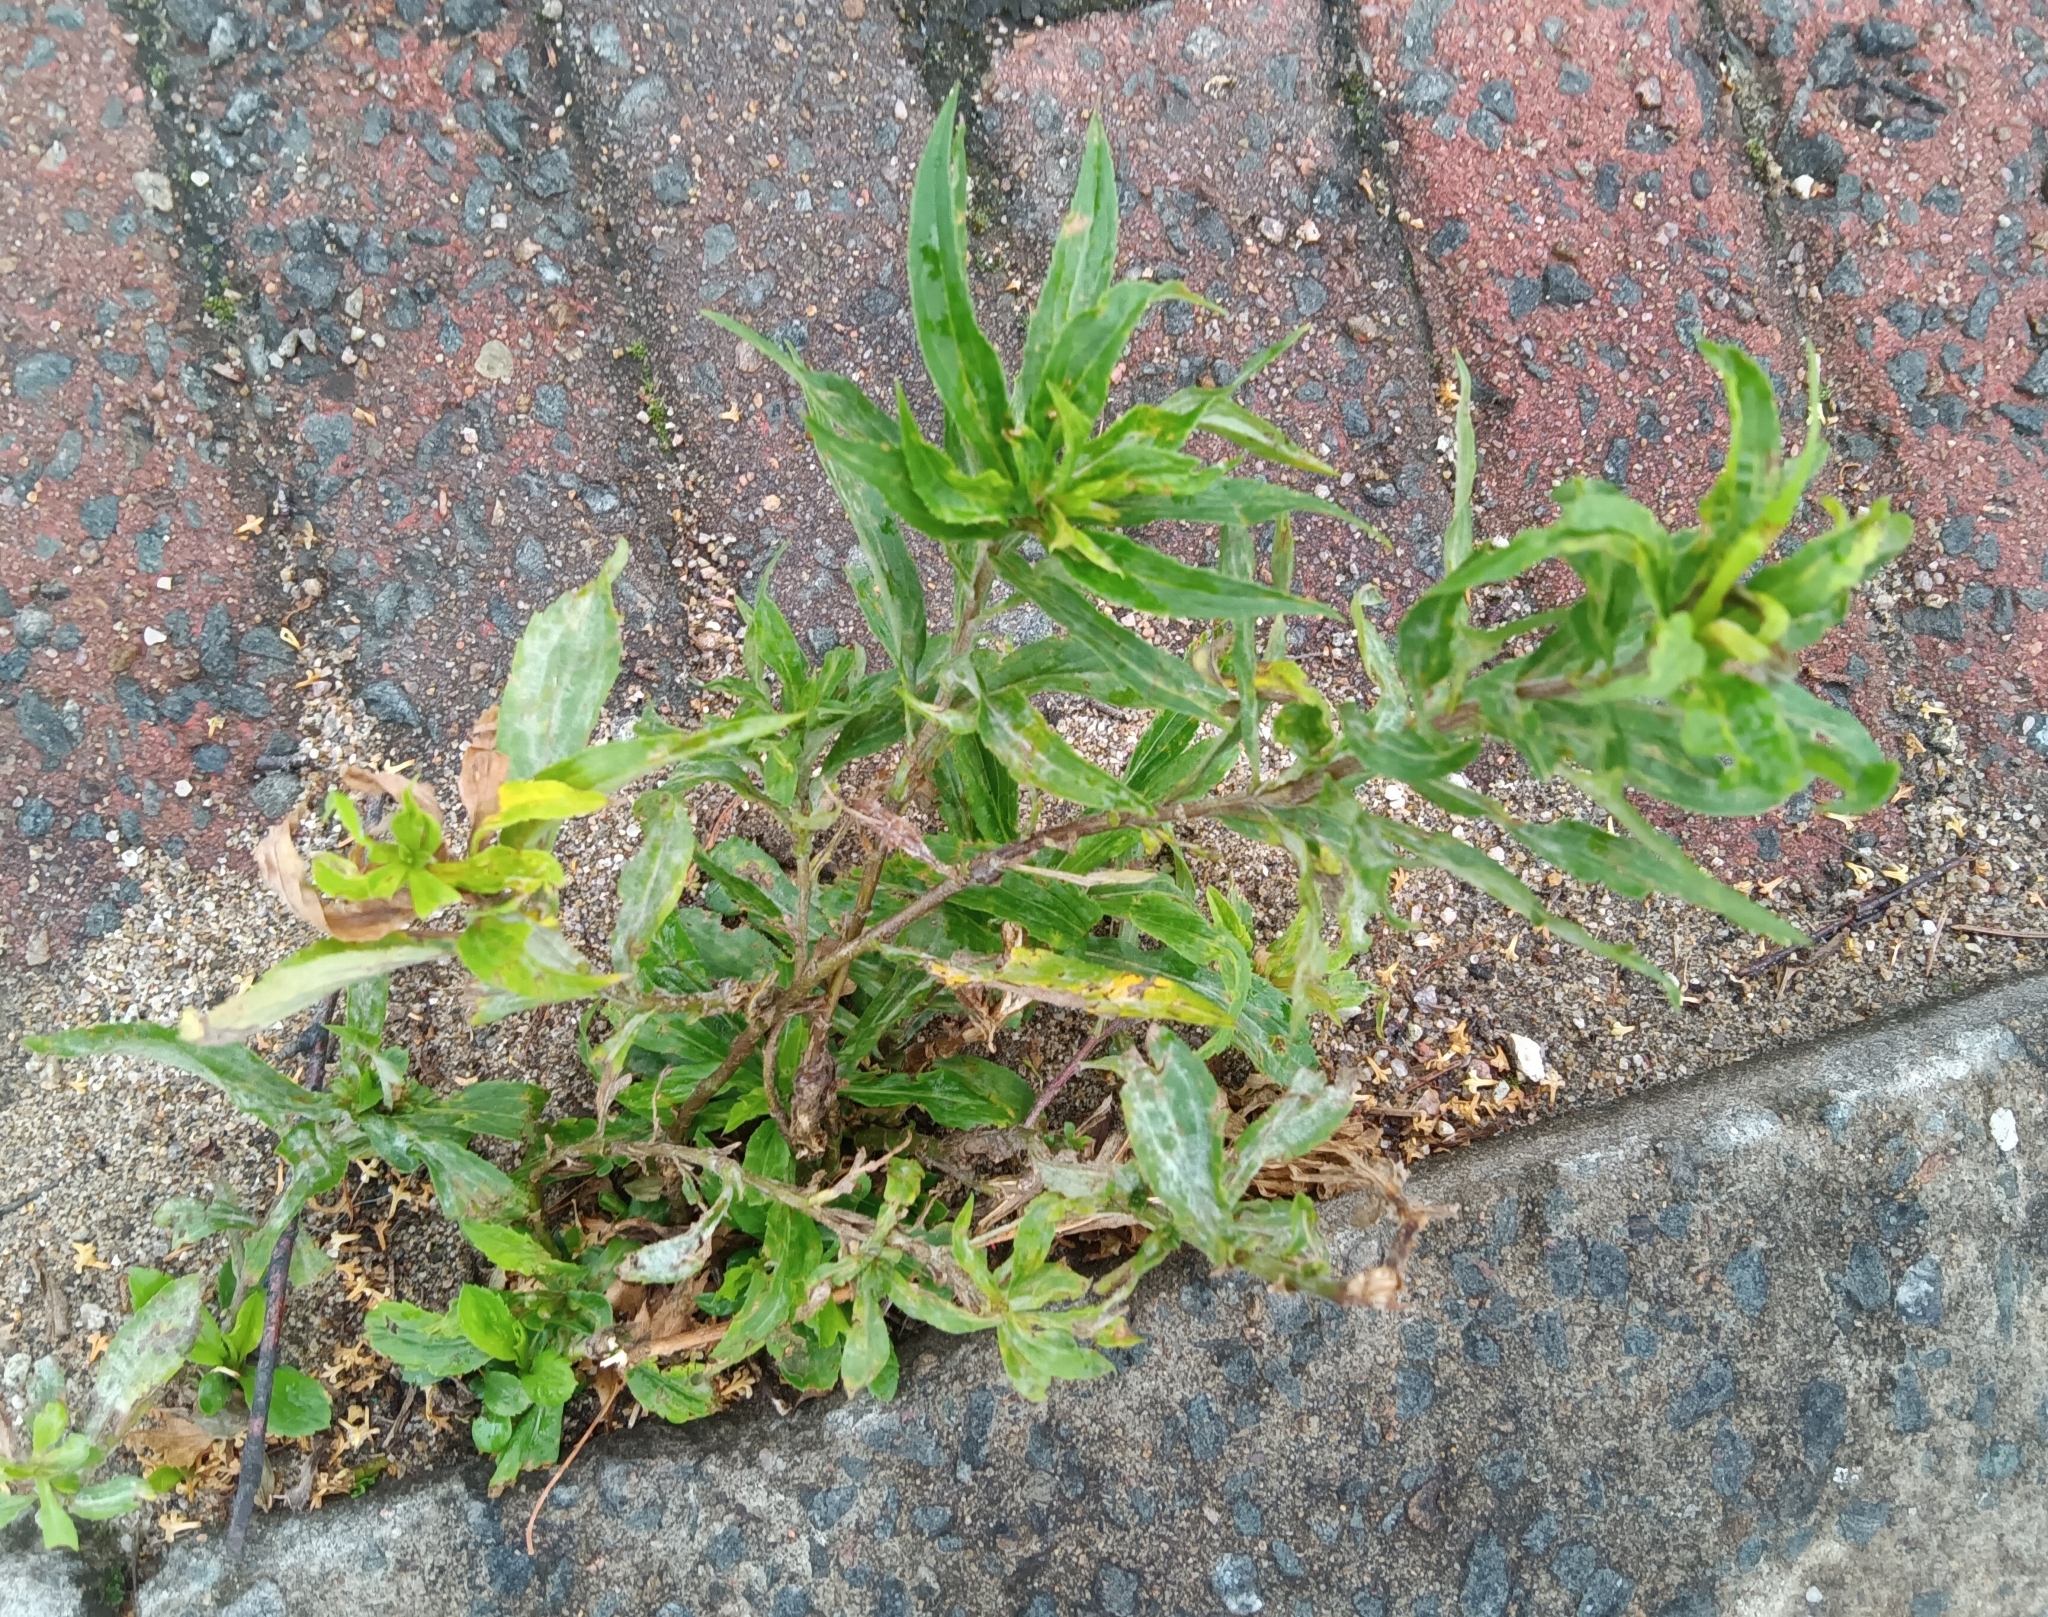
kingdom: Plantae
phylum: Tracheophyta
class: Magnoliopsida
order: Myrtales
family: Onagraceae
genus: Oenothera
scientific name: Oenothera biennis
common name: Common evening-primrose
